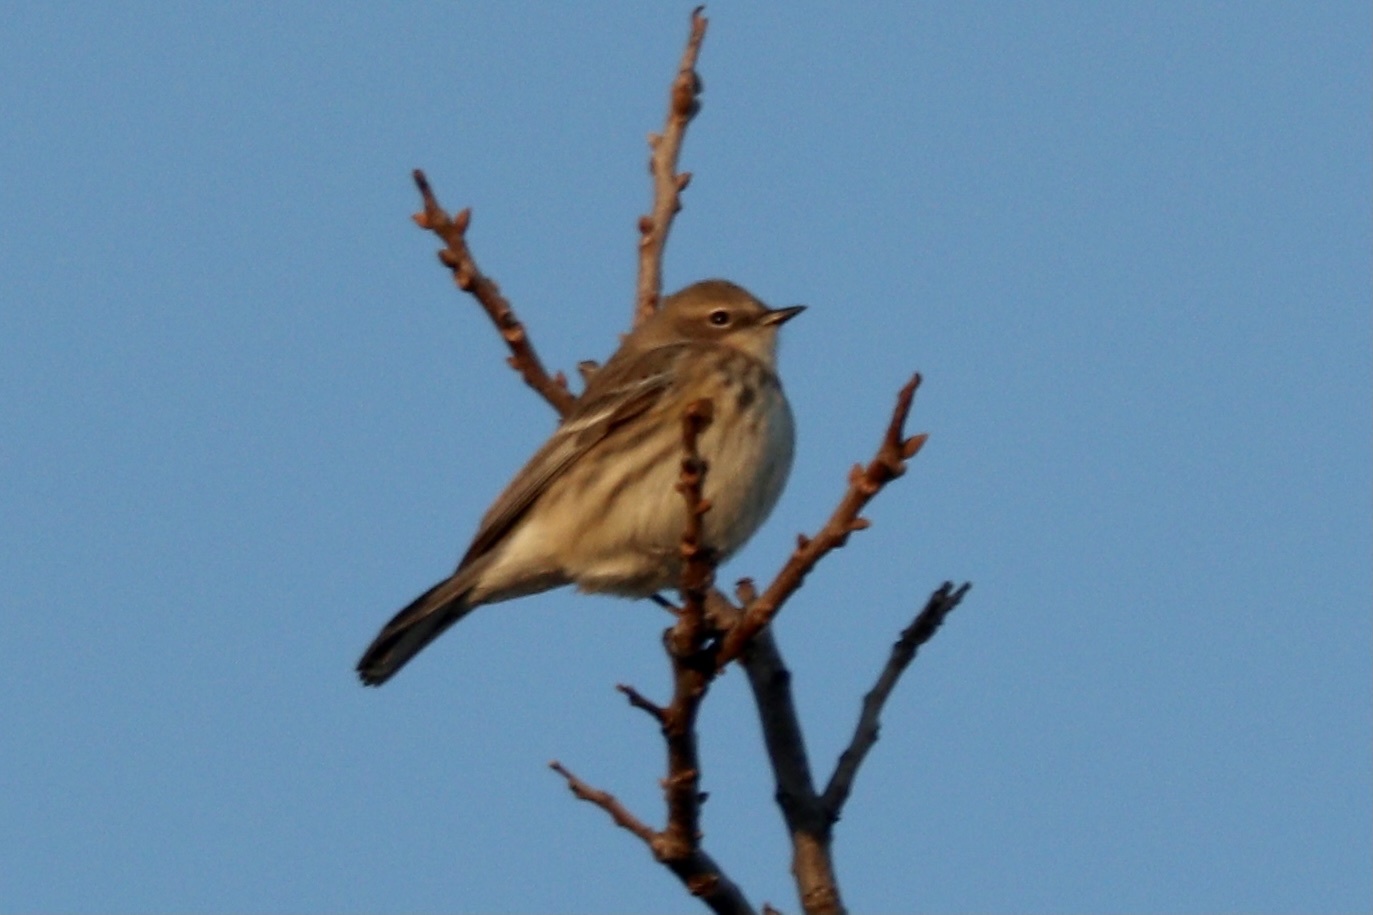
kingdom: Animalia
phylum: Chordata
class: Aves
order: Passeriformes
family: Parulidae
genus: Setophaga
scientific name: Setophaga coronata
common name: Myrtle warbler
